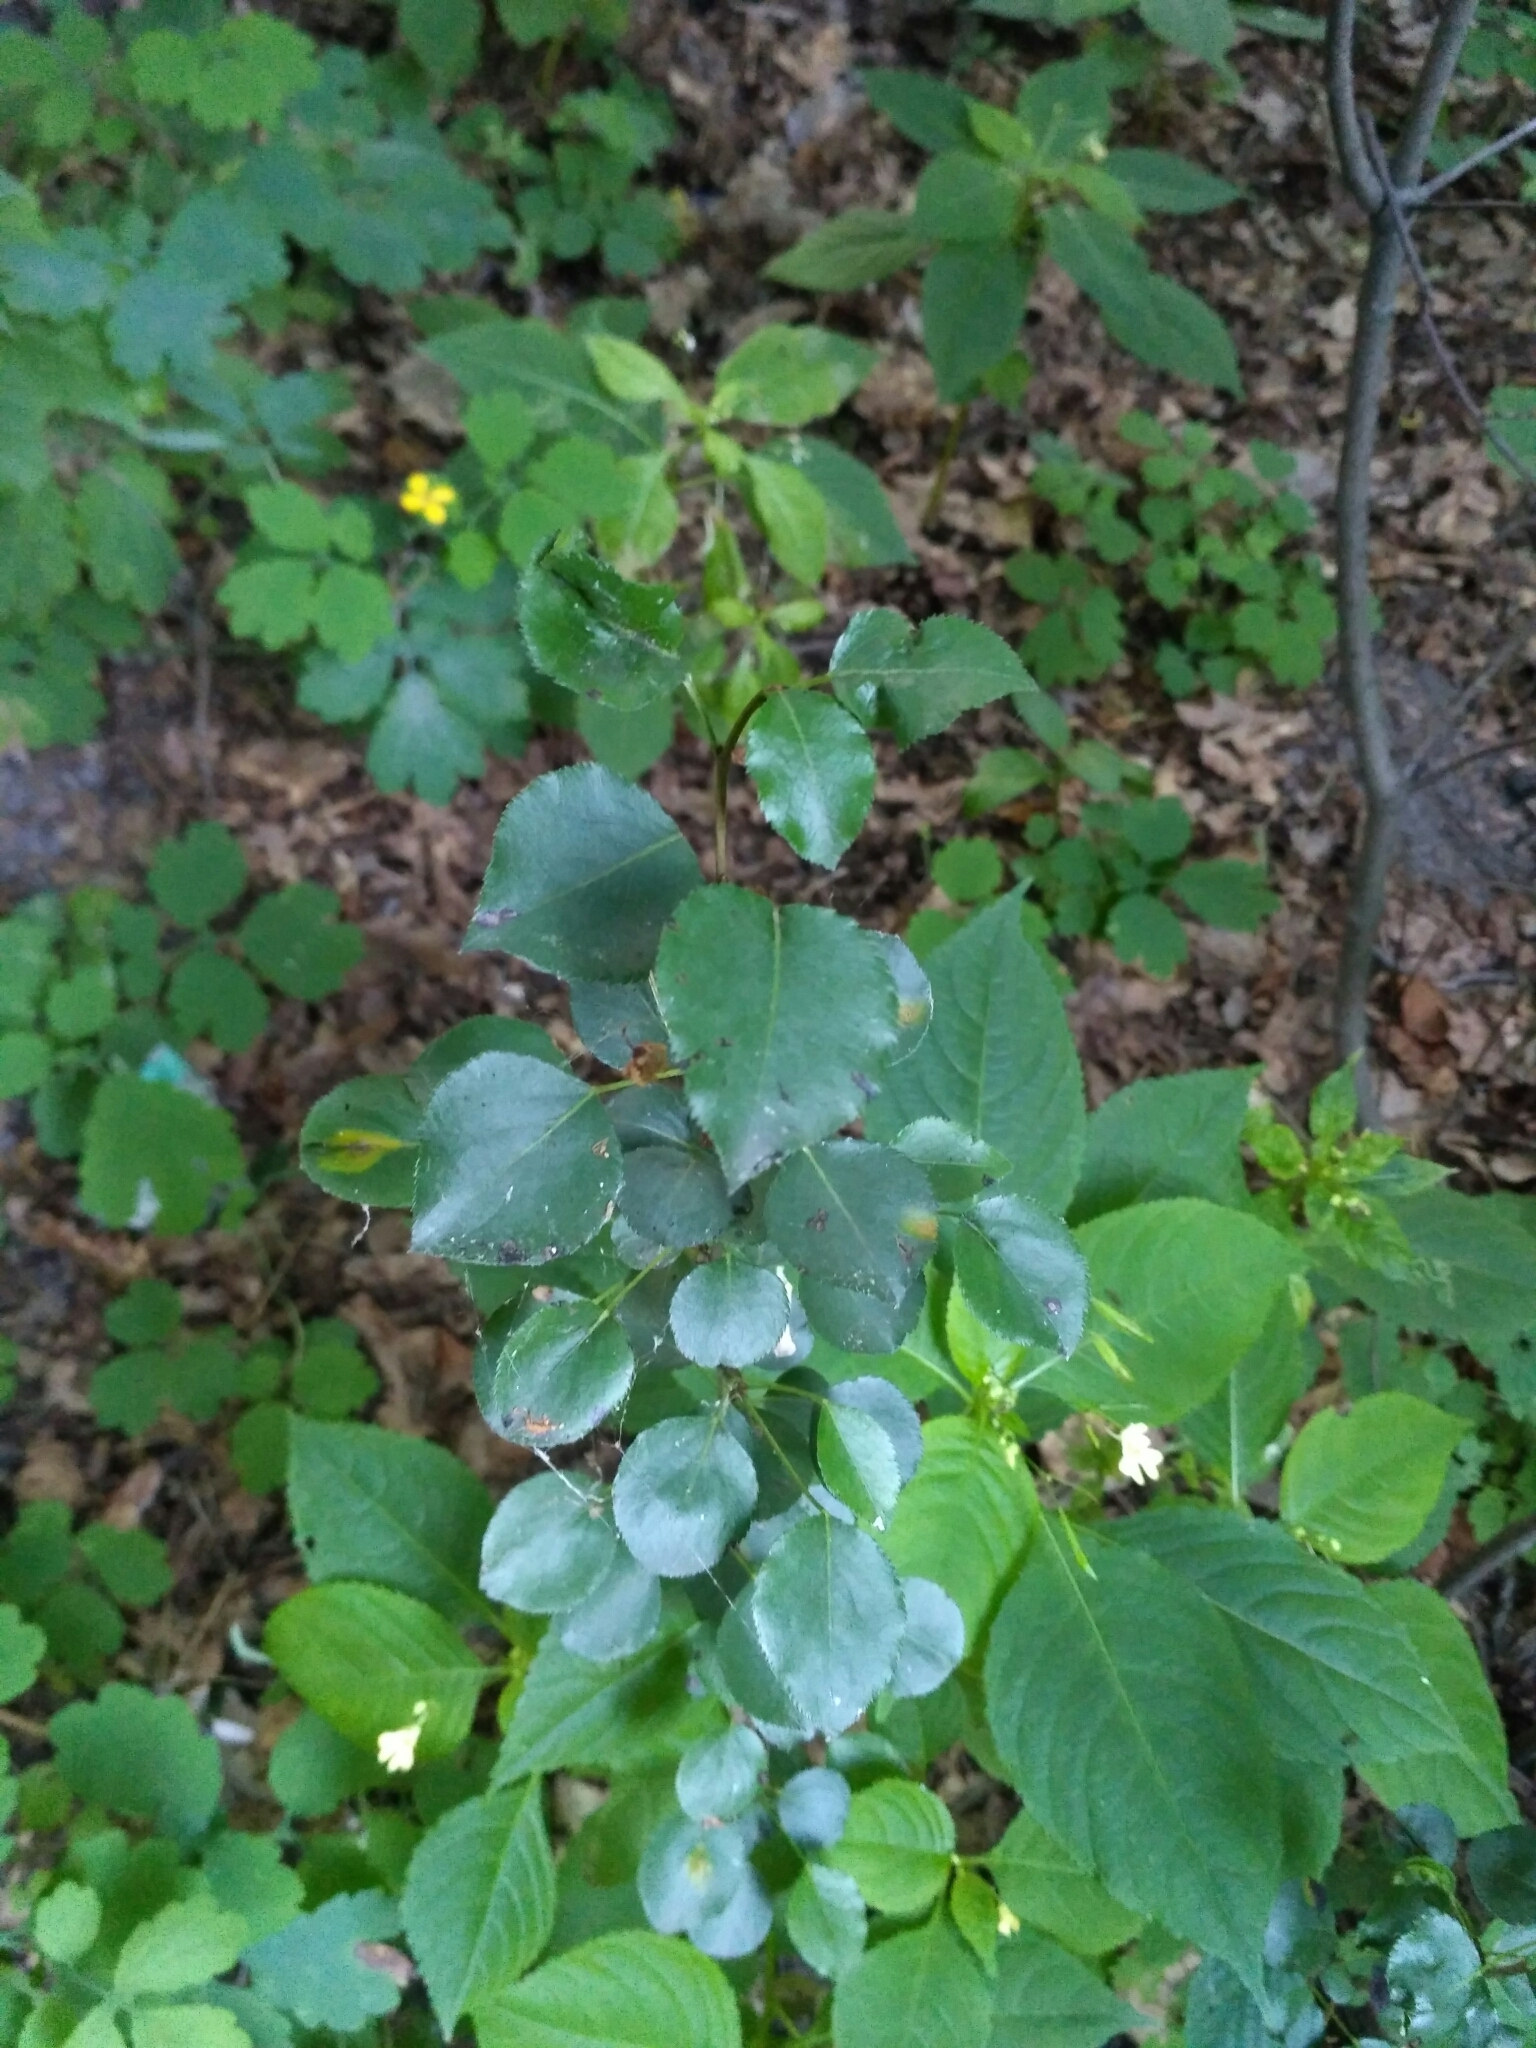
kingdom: Plantae
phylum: Tracheophyta
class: Magnoliopsida
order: Rosales
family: Rosaceae
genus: Pyrus
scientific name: Pyrus communis
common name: Pear
